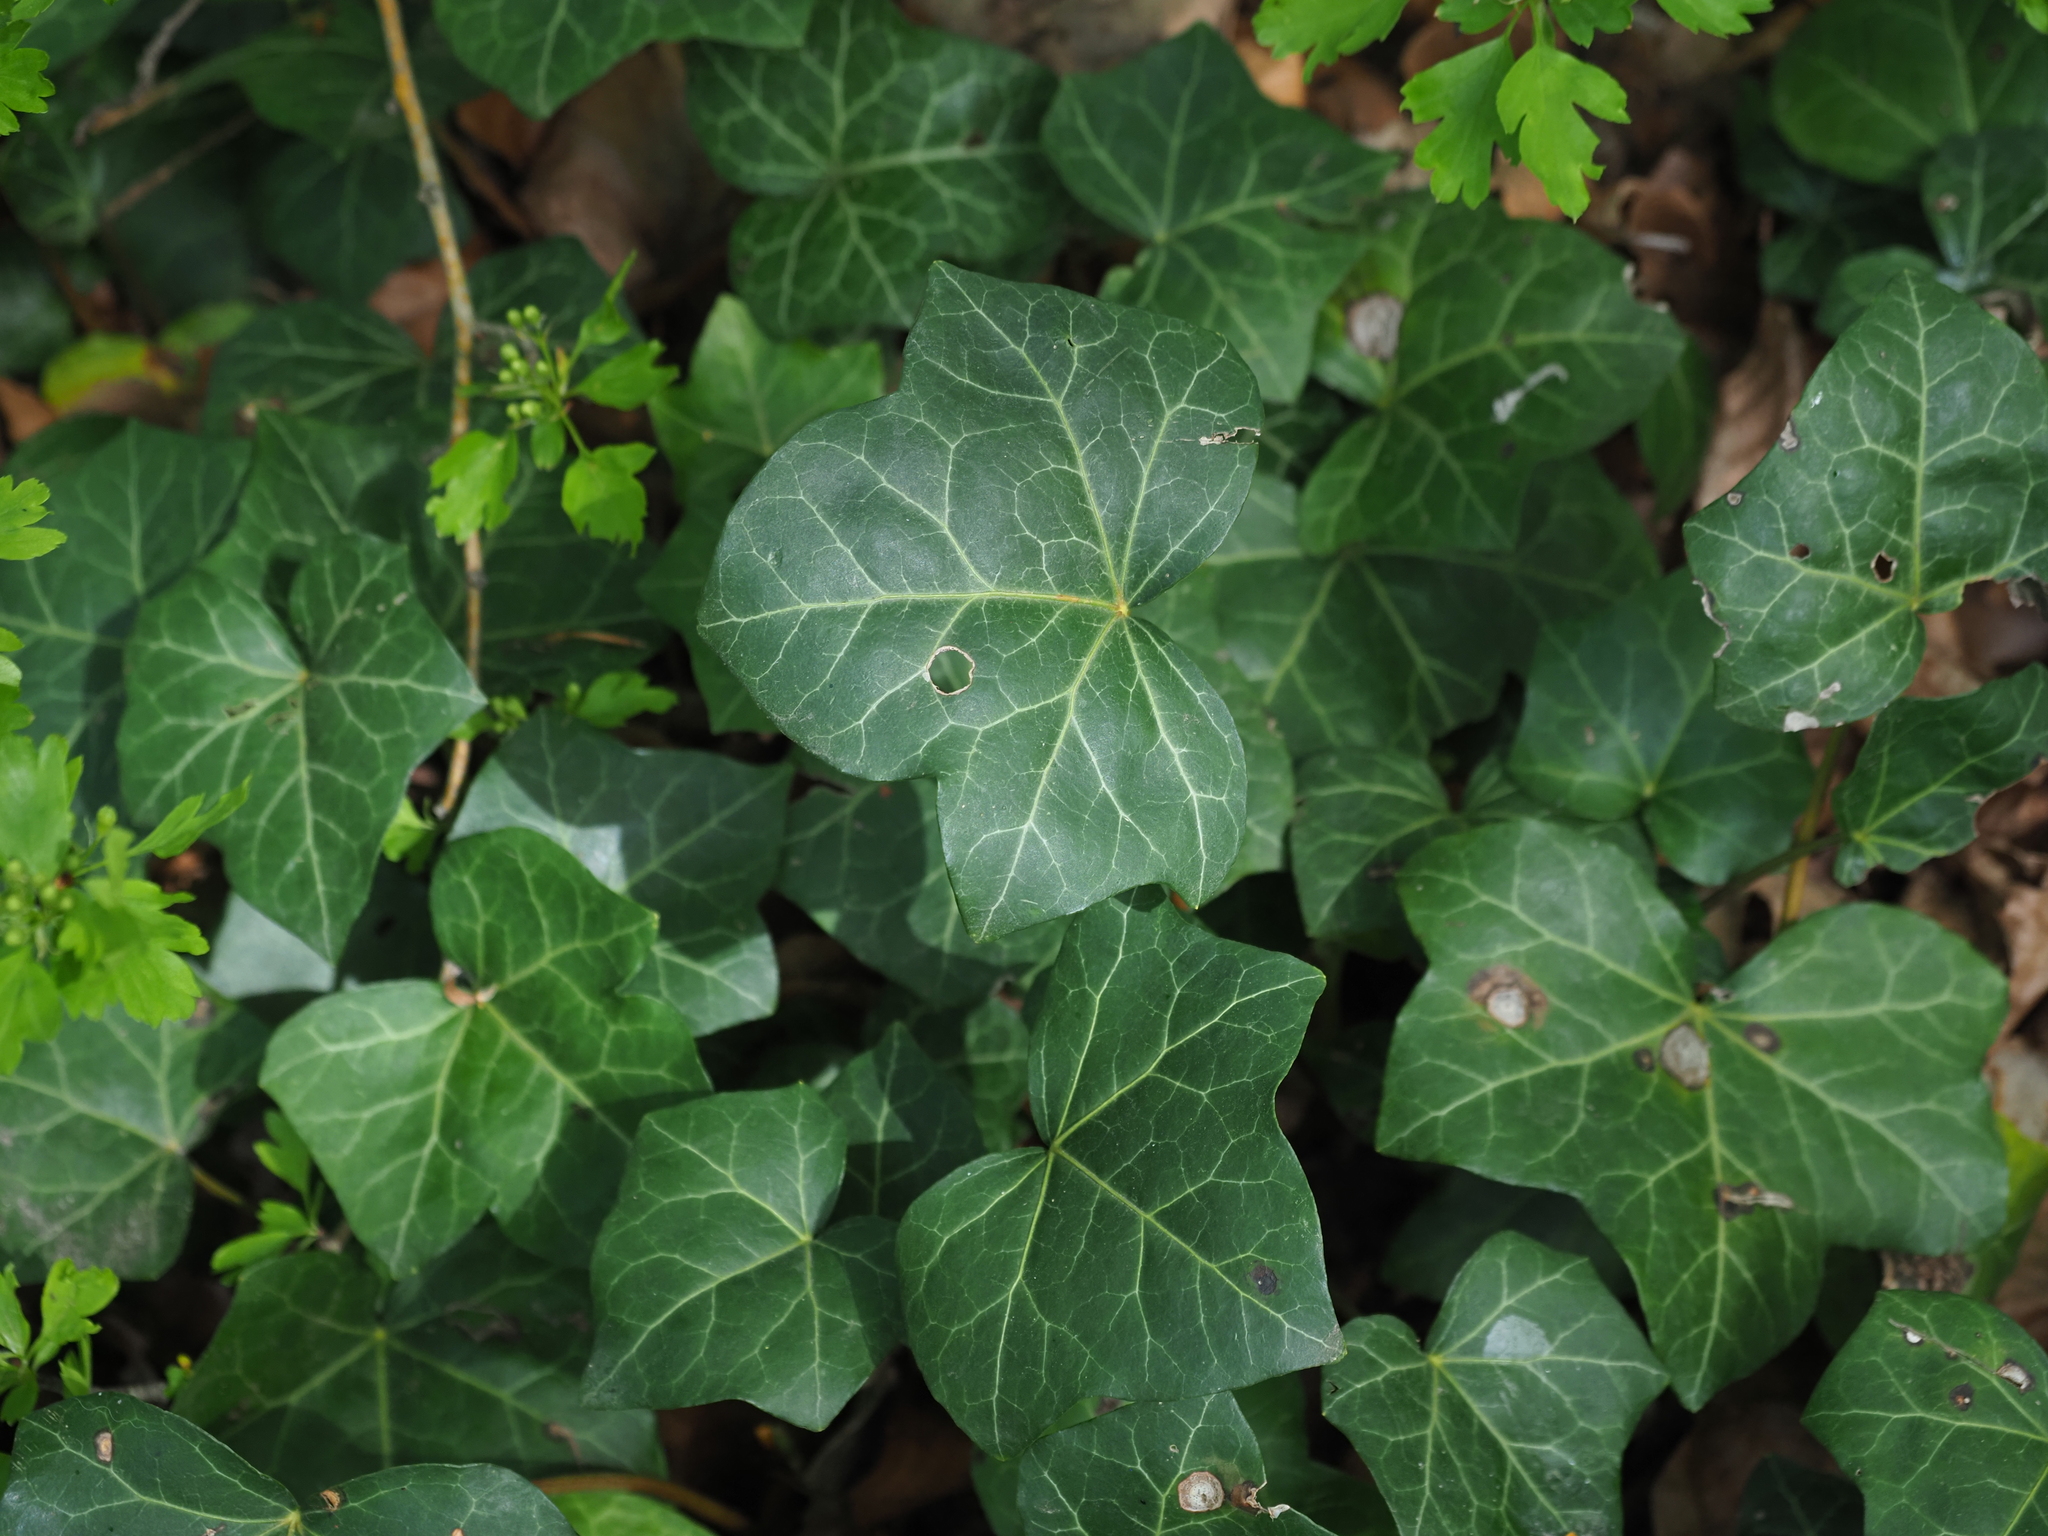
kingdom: Plantae
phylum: Tracheophyta
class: Magnoliopsida
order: Apiales
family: Araliaceae
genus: Hedera
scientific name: Hedera helix
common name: Ivy
